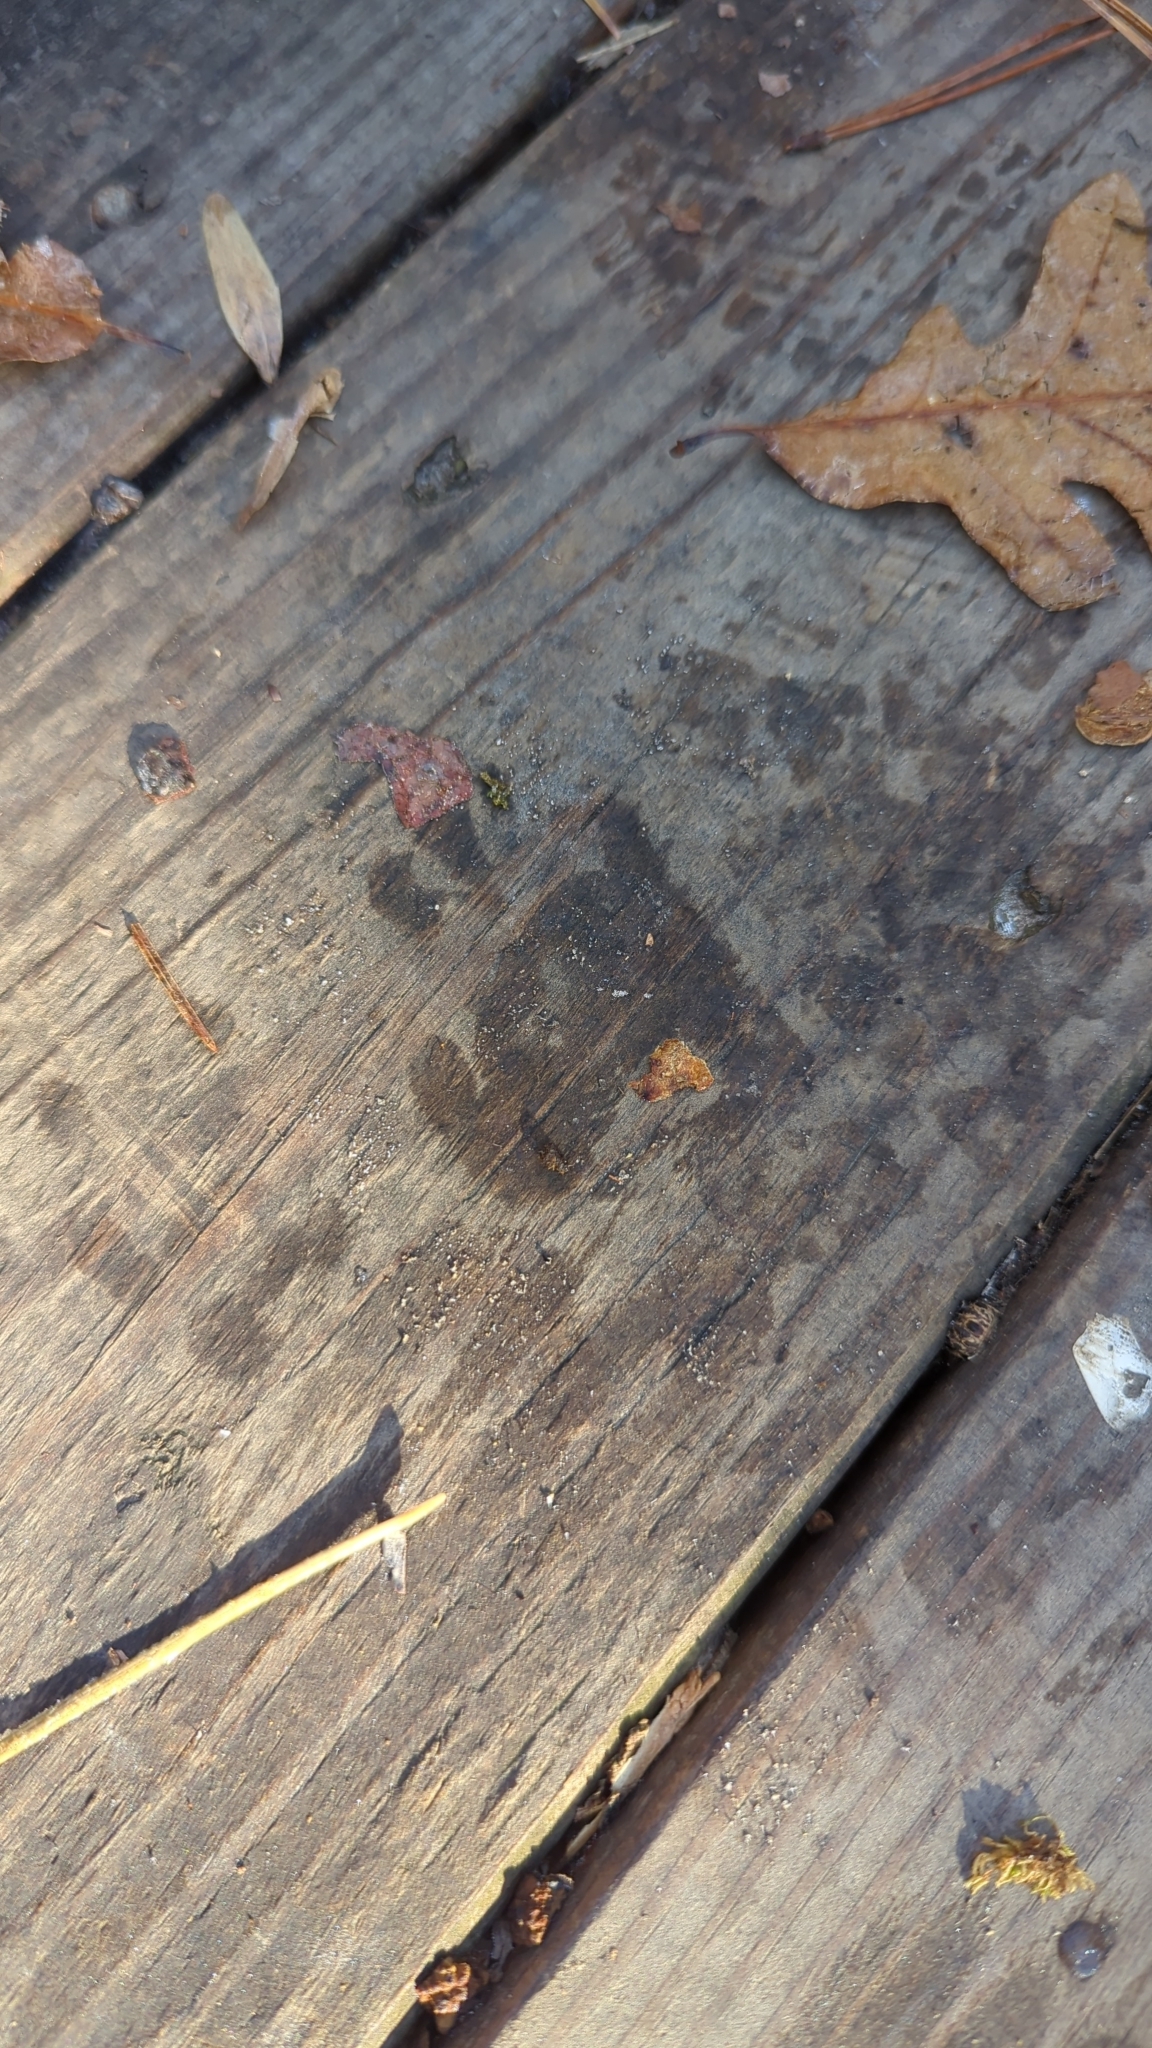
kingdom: Animalia
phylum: Chordata
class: Mammalia
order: Carnivora
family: Procyonidae
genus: Procyon
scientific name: Procyon lotor
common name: Raccoon
